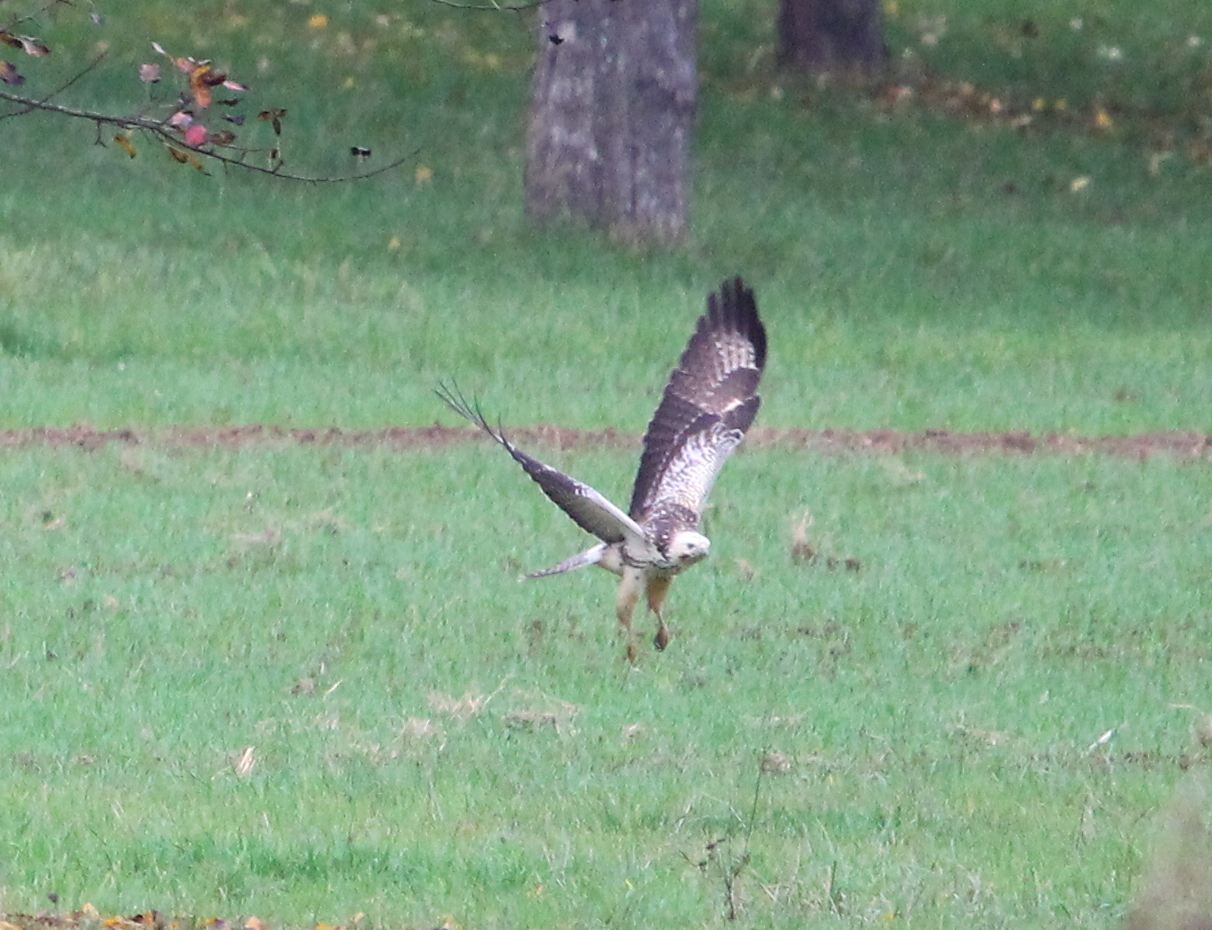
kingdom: Animalia
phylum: Chordata
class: Aves
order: Accipitriformes
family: Accipitridae
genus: Buteo
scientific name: Buteo buteo
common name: Common buzzard
